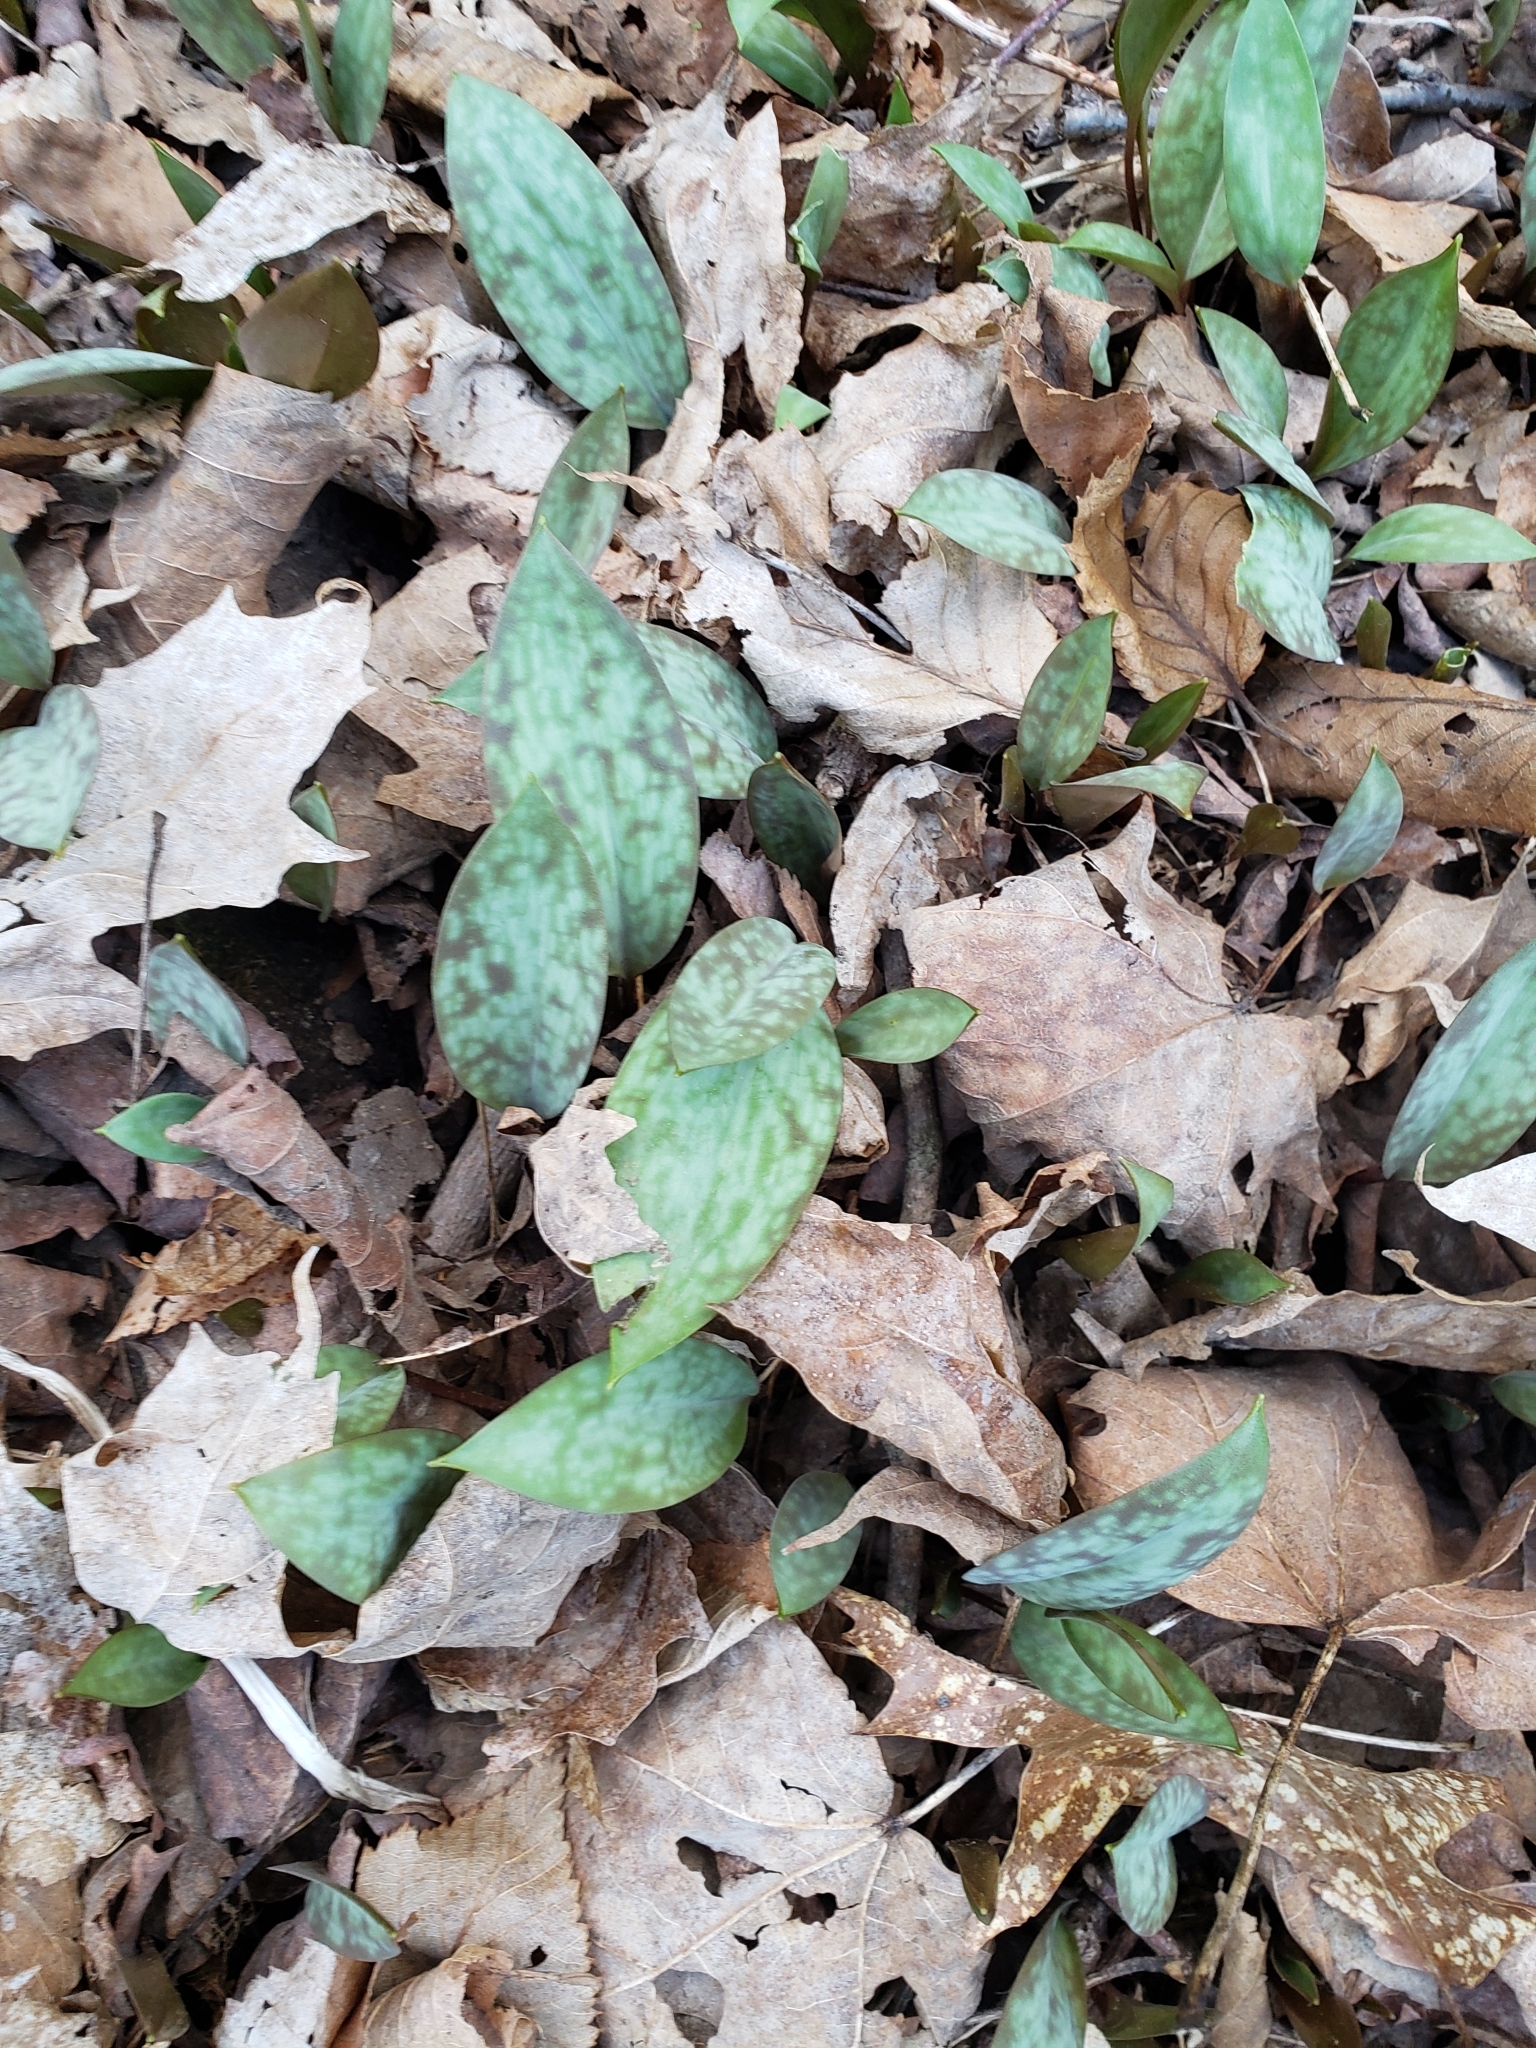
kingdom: Plantae
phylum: Tracheophyta
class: Liliopsida
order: Liliales
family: Liliaceae
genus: Erythronium
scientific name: Erythronium americanum
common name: Yellow adder's-tongue
